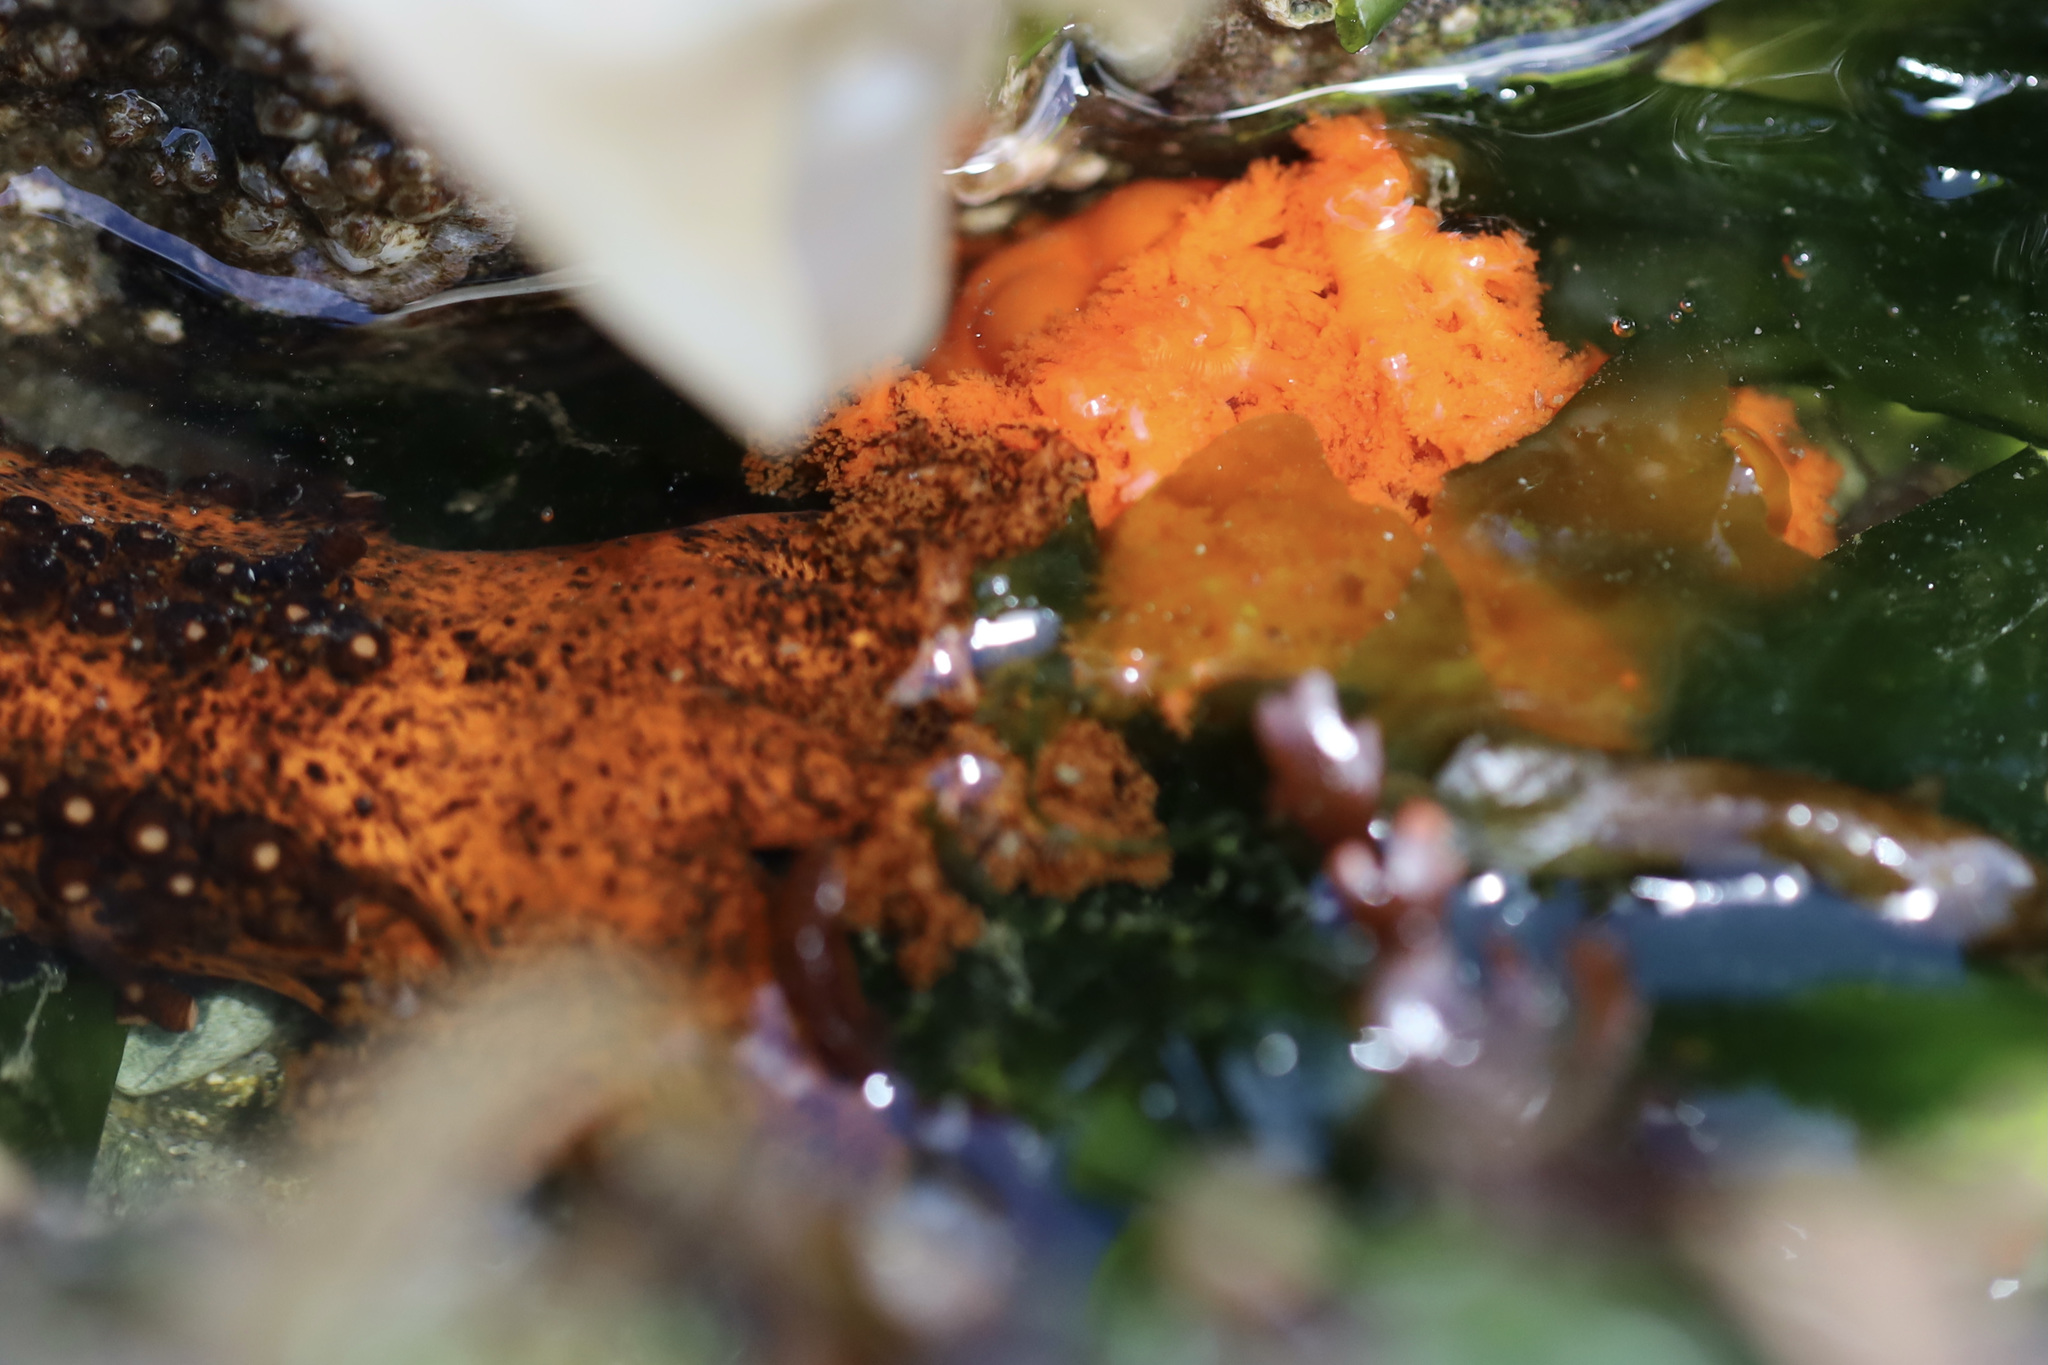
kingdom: Animalia
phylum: Echinodermata
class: Holothuroidea
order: Dendrochirotida
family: Cucumariidae
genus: Cucumaria
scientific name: Cucumaria miniata
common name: Orange sea cucumber
